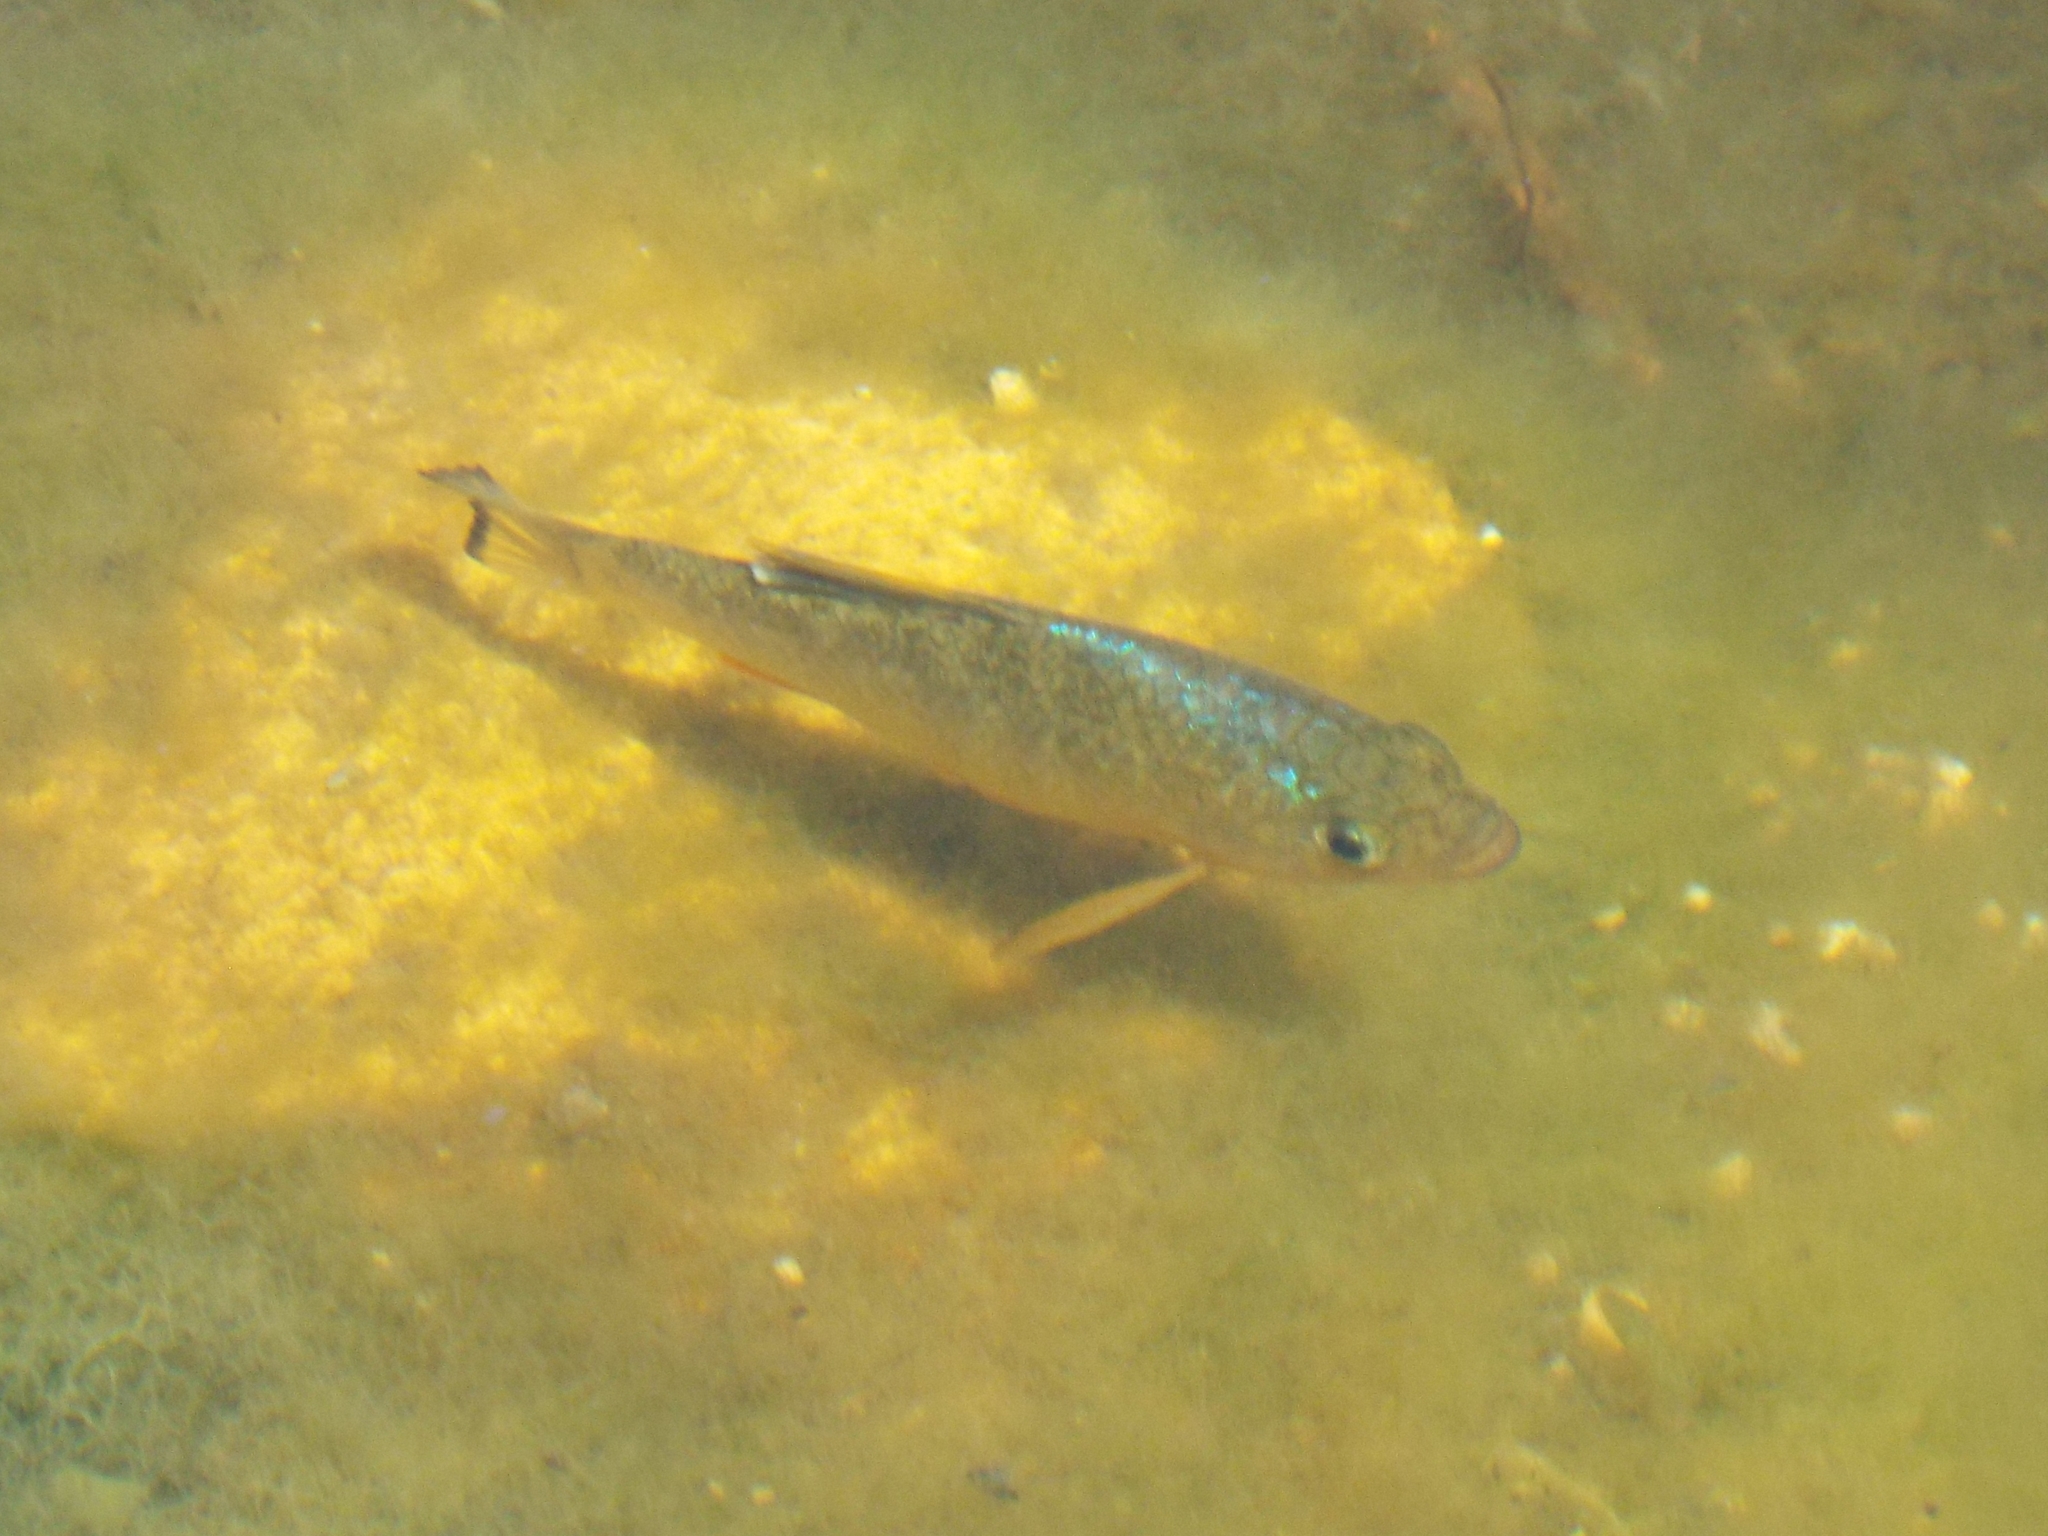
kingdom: Animalia
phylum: Chordata
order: Cyprinodontiformes
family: Cyprinodontidae
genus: Cyprinodon
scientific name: Cyprinodon variegatus
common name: Sheepshead minnow
